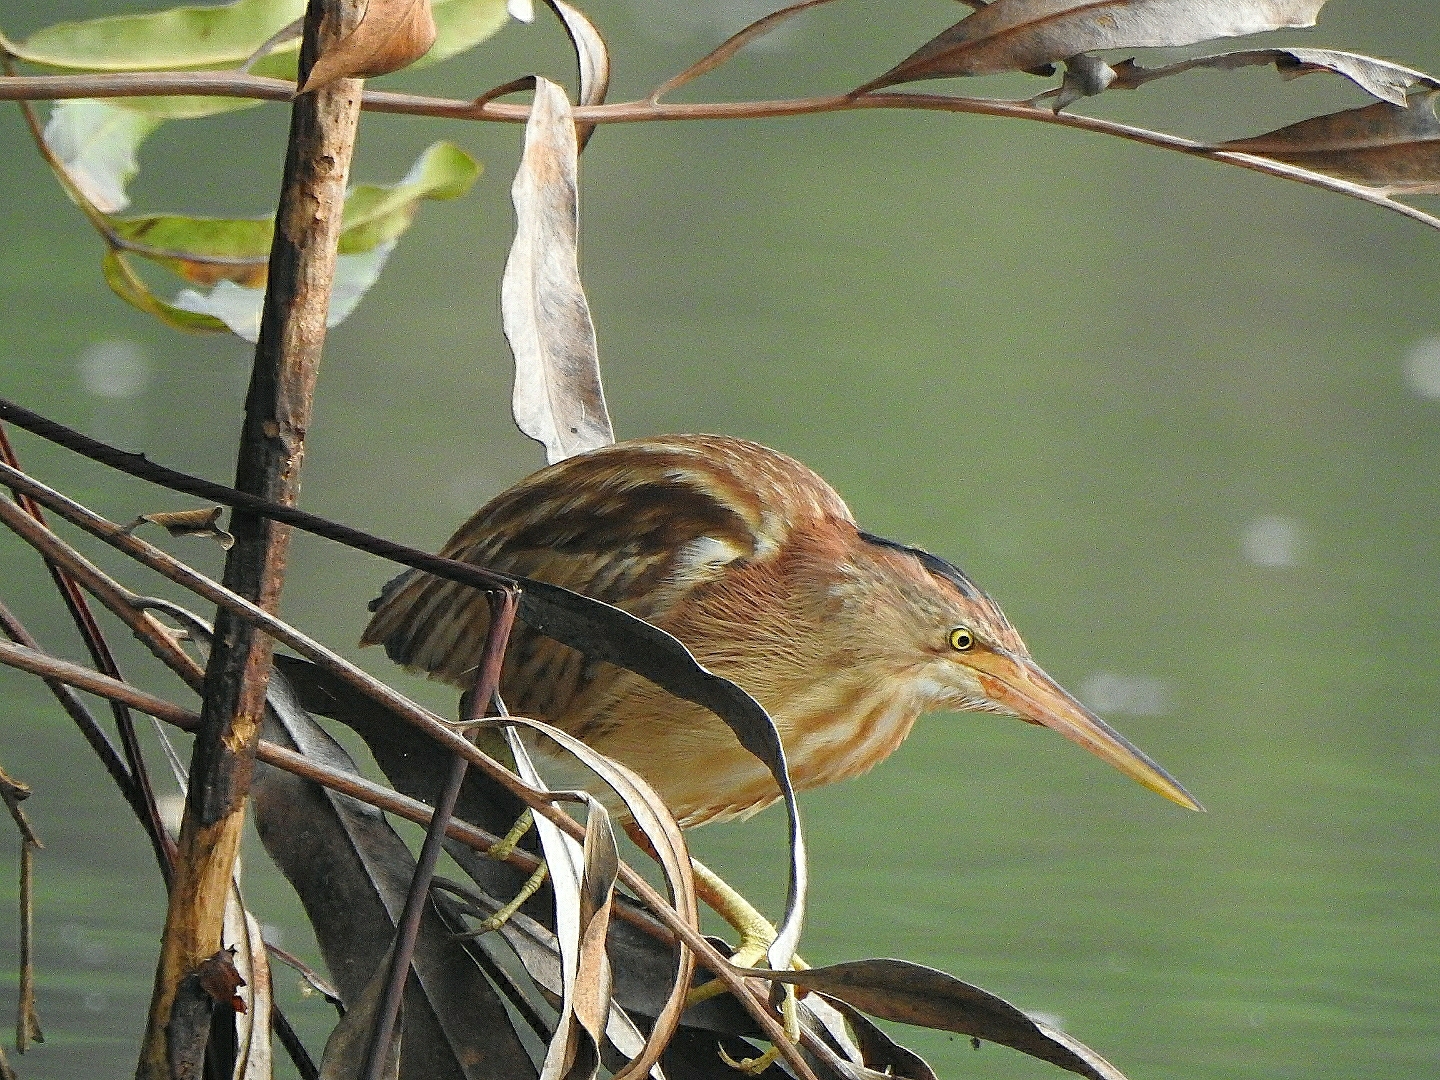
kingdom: Animalia
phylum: Chordata
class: Aves
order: Pelecaniformes
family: Ardeidae
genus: Ixobrychus
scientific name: Ixobrychus sinensis
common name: Yellow bittern
